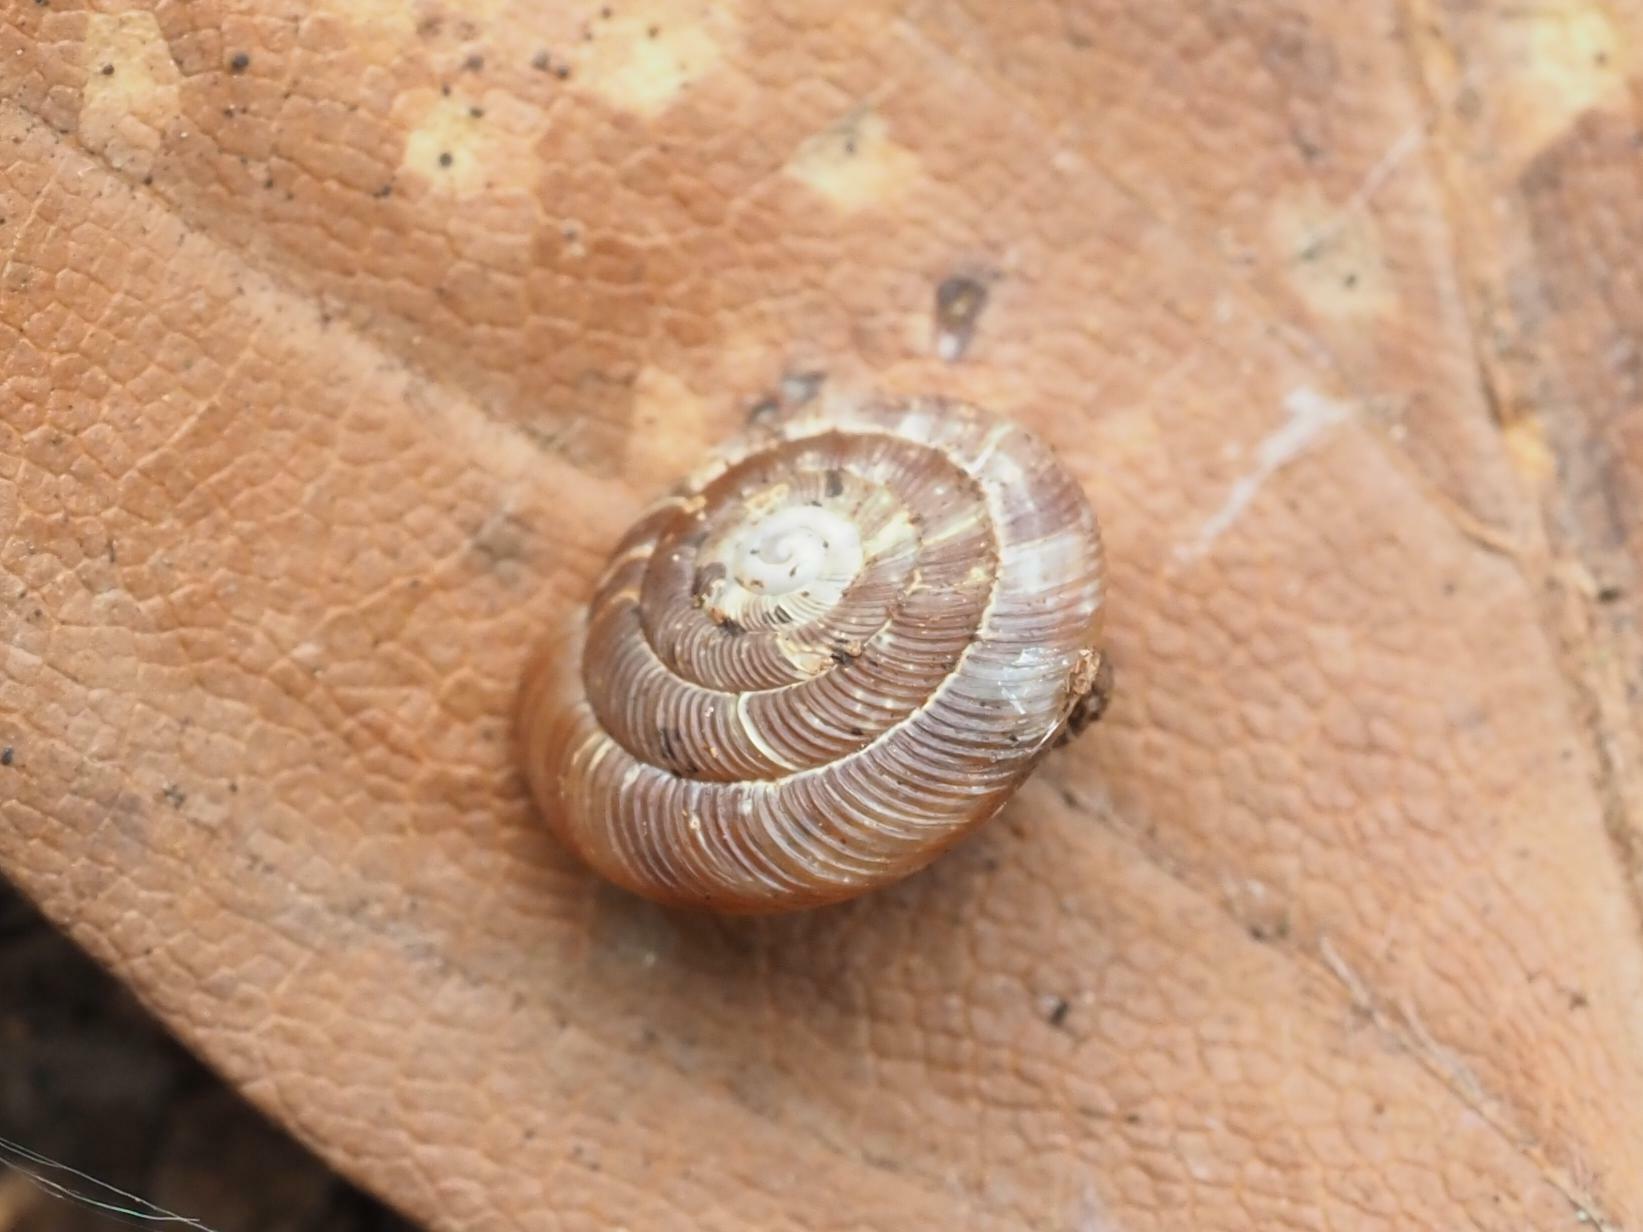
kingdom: Animalia
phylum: Mollusca
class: Gastropoda
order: Stylommatophora
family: Discidae
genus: Discus
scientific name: Discus rotundatus
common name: Rounded snail
